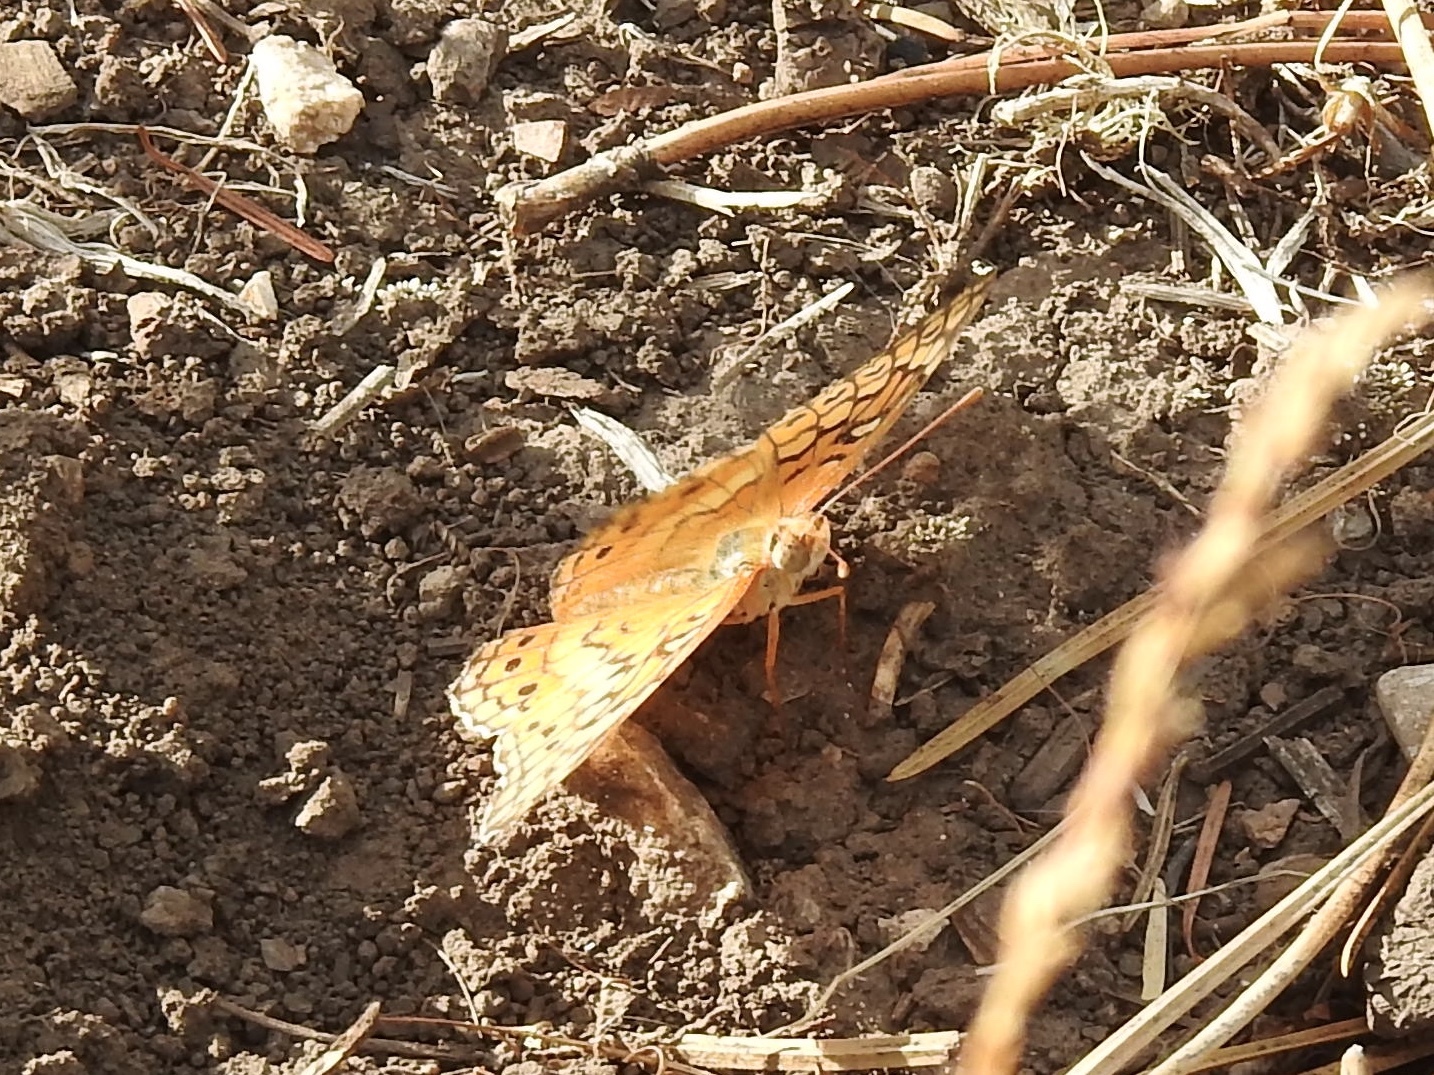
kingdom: Animalia
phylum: Arthropoda
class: Insecta
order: Lepidoptera
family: Nymphalidae
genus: Euptoieta
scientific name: Euptoieta claudia
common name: Variegated fritillary
